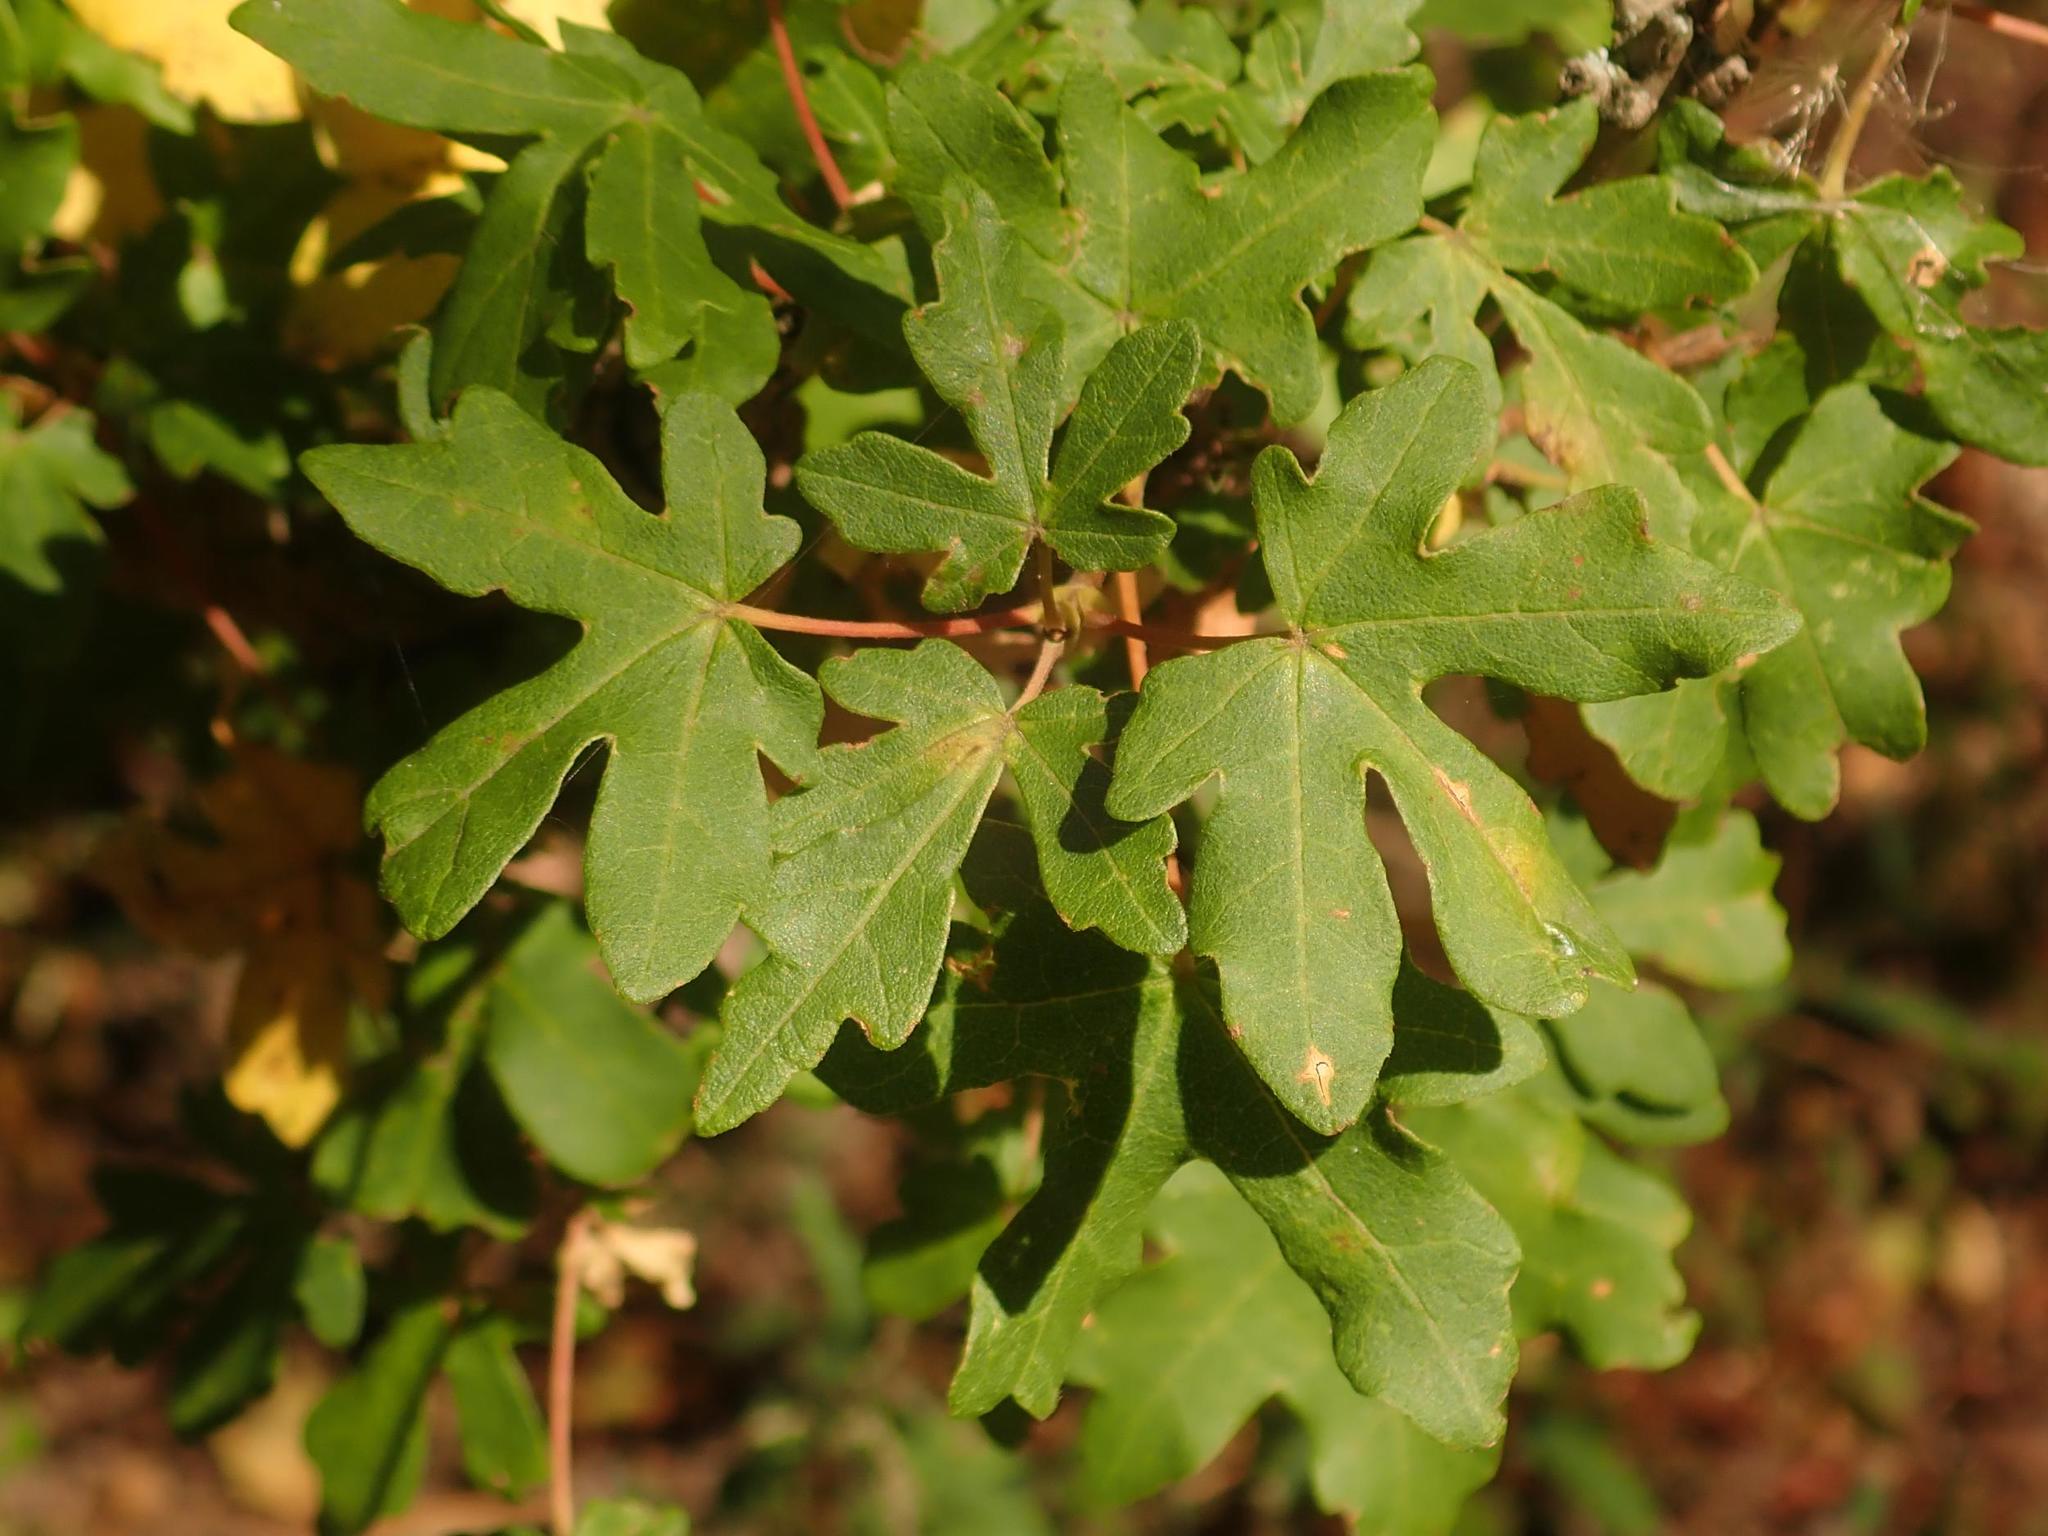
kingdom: Plantae
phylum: Tracheophyta
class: Magnoliopsida
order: Sapindales
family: Sapindaceae
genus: Acer
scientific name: Acer campestre
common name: Field maple
